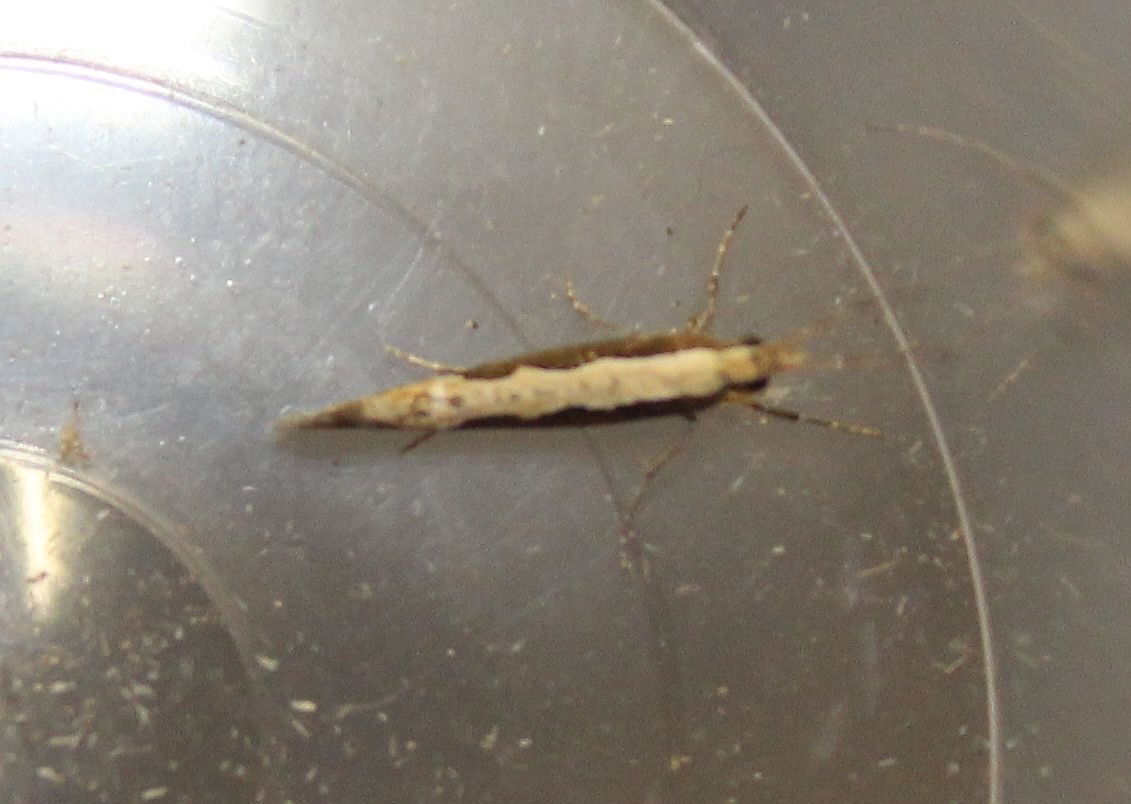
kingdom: Animalia
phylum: Arthropoda
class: Insecta
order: Lepidoptera
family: Plutellidae
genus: Plutella
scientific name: Plutella xylostella
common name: Diamond-back moth
